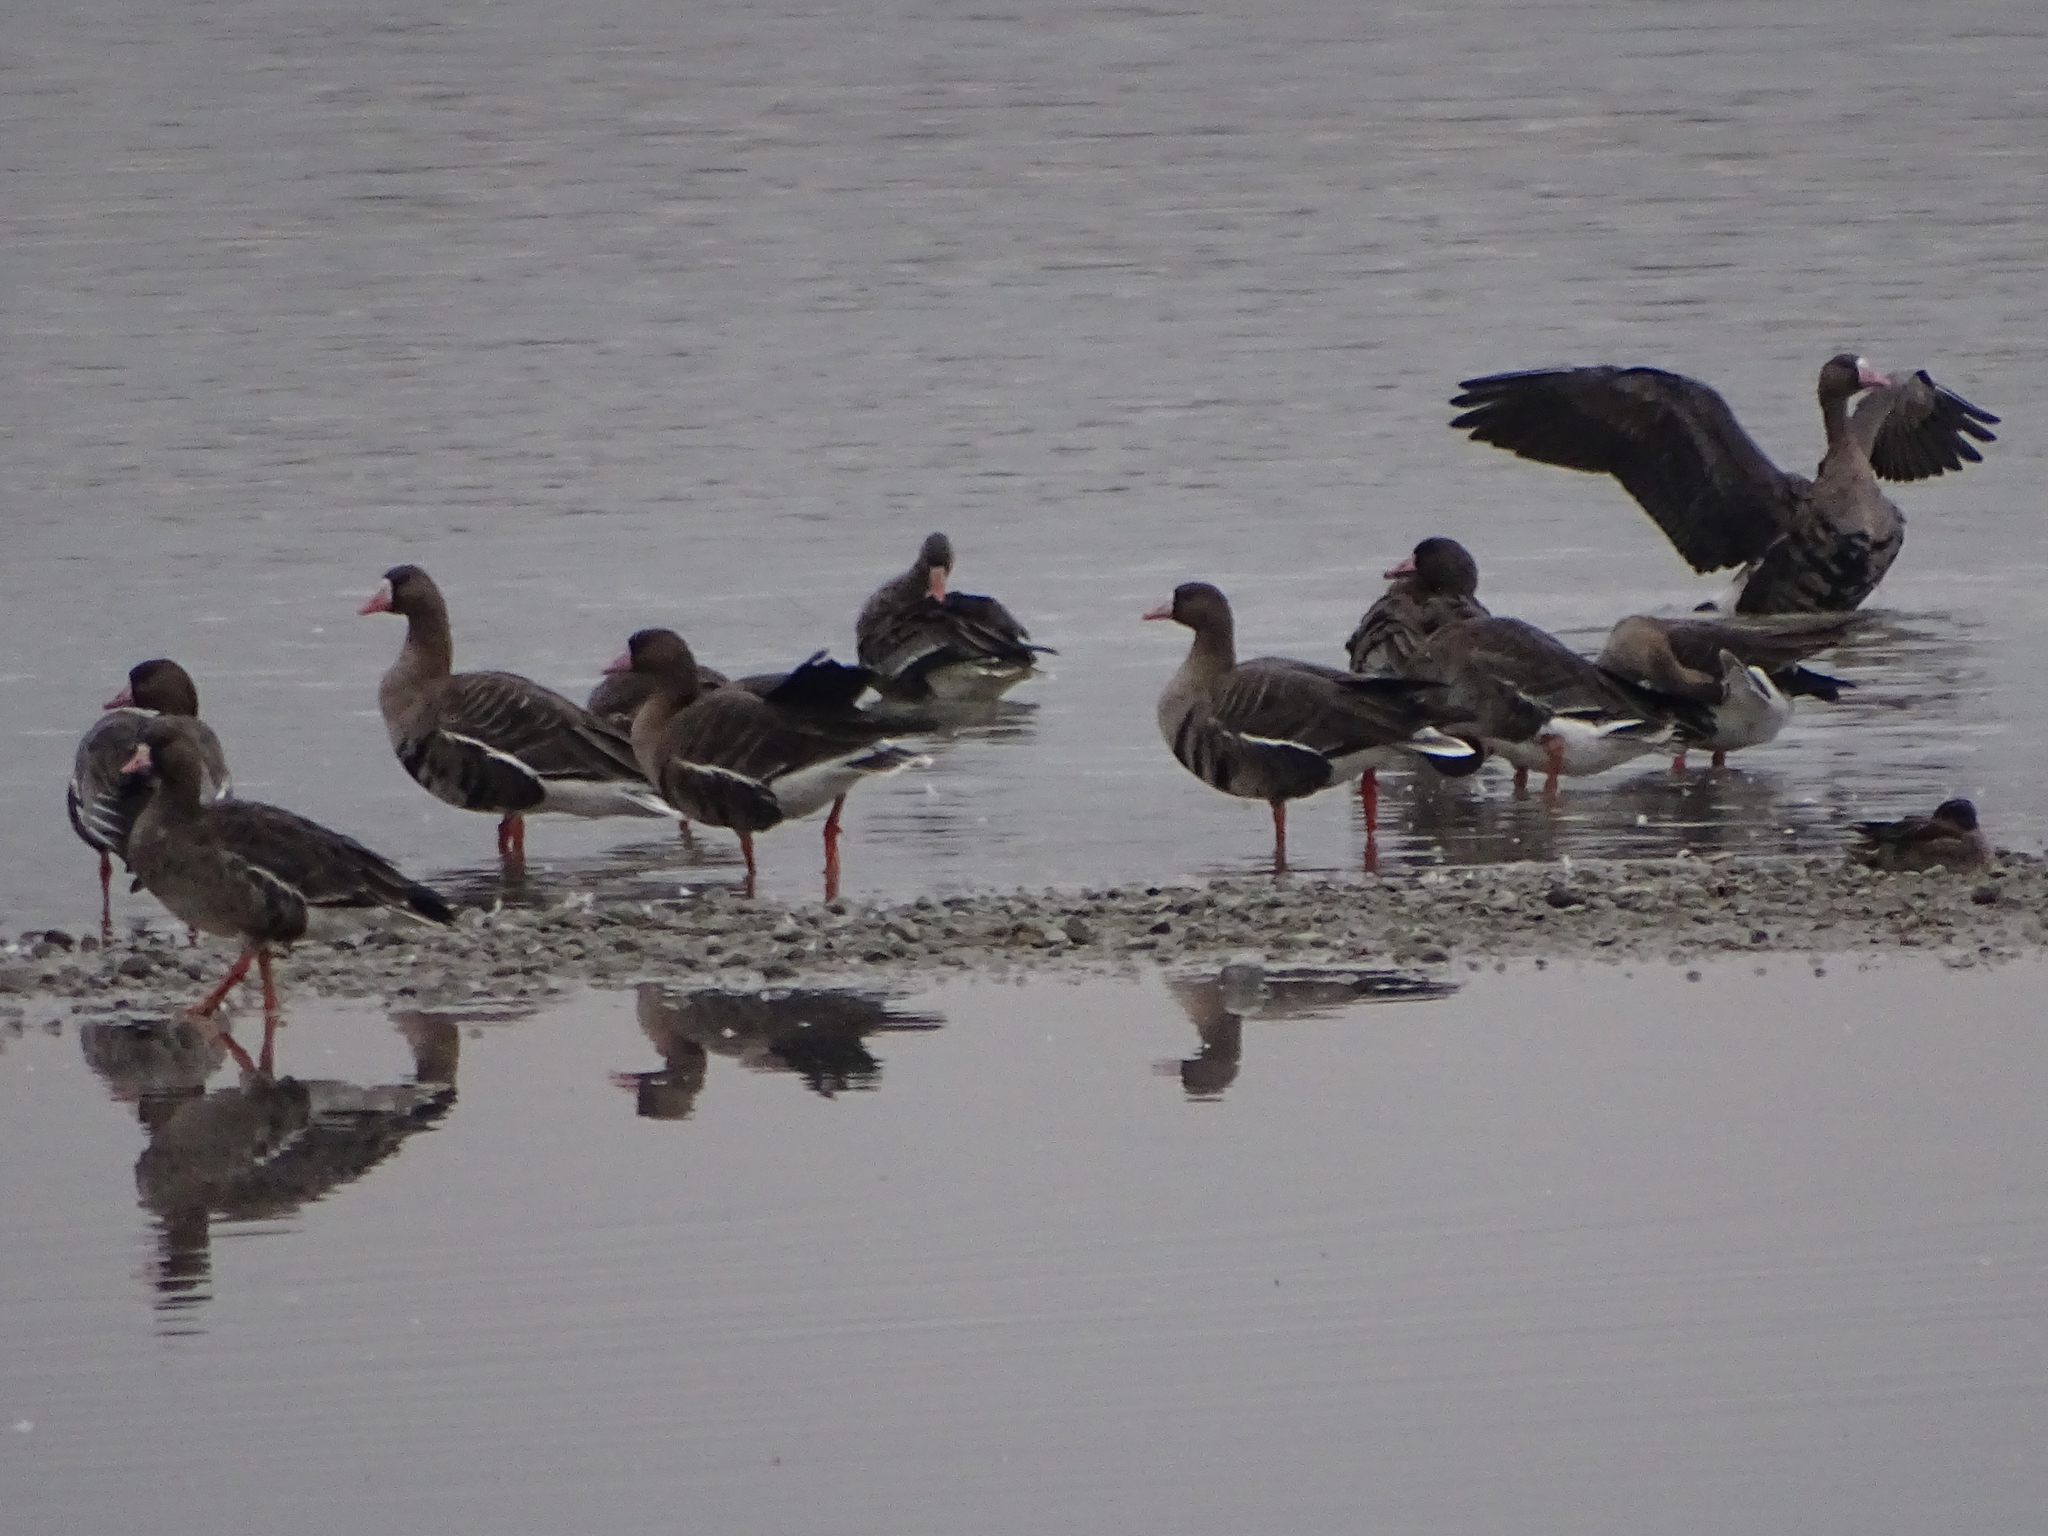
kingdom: Animalia
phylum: Chordata
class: Aves
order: Anseriformes
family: Anatidae
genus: Anser
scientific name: Anser albifrons
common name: Greater white-fronted goose
